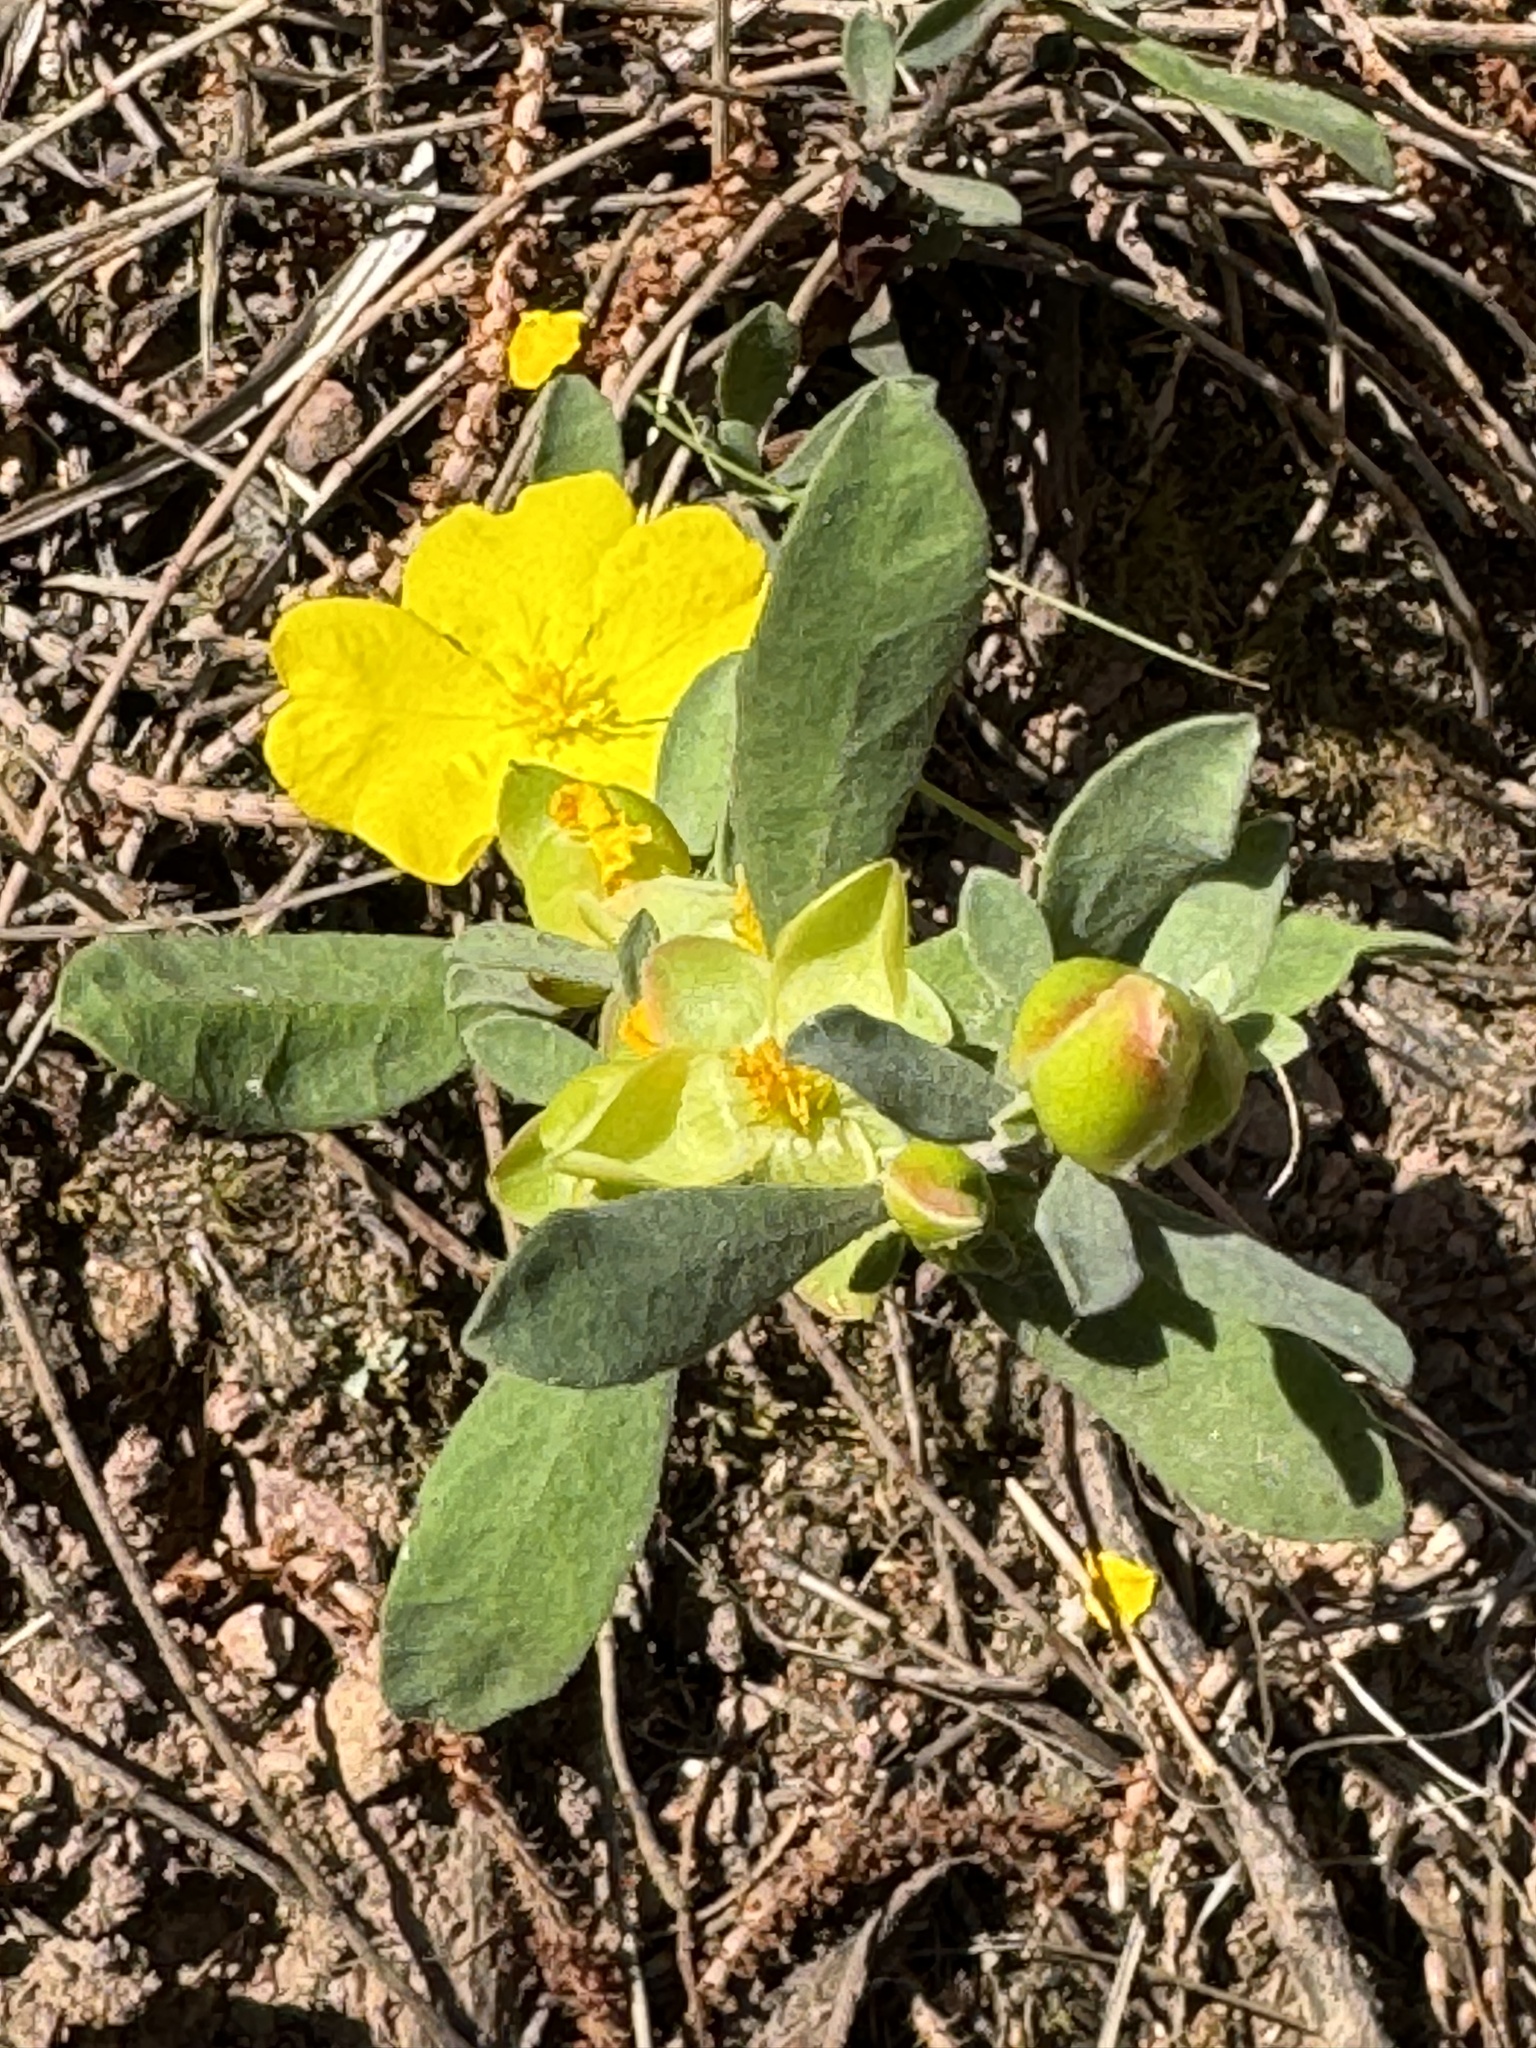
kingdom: Plantae
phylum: Tracheophyta
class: Magnoliopsida
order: Dilleniales
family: Dilleniaceae
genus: Hibbertia
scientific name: Hibbertia obtusifolia
